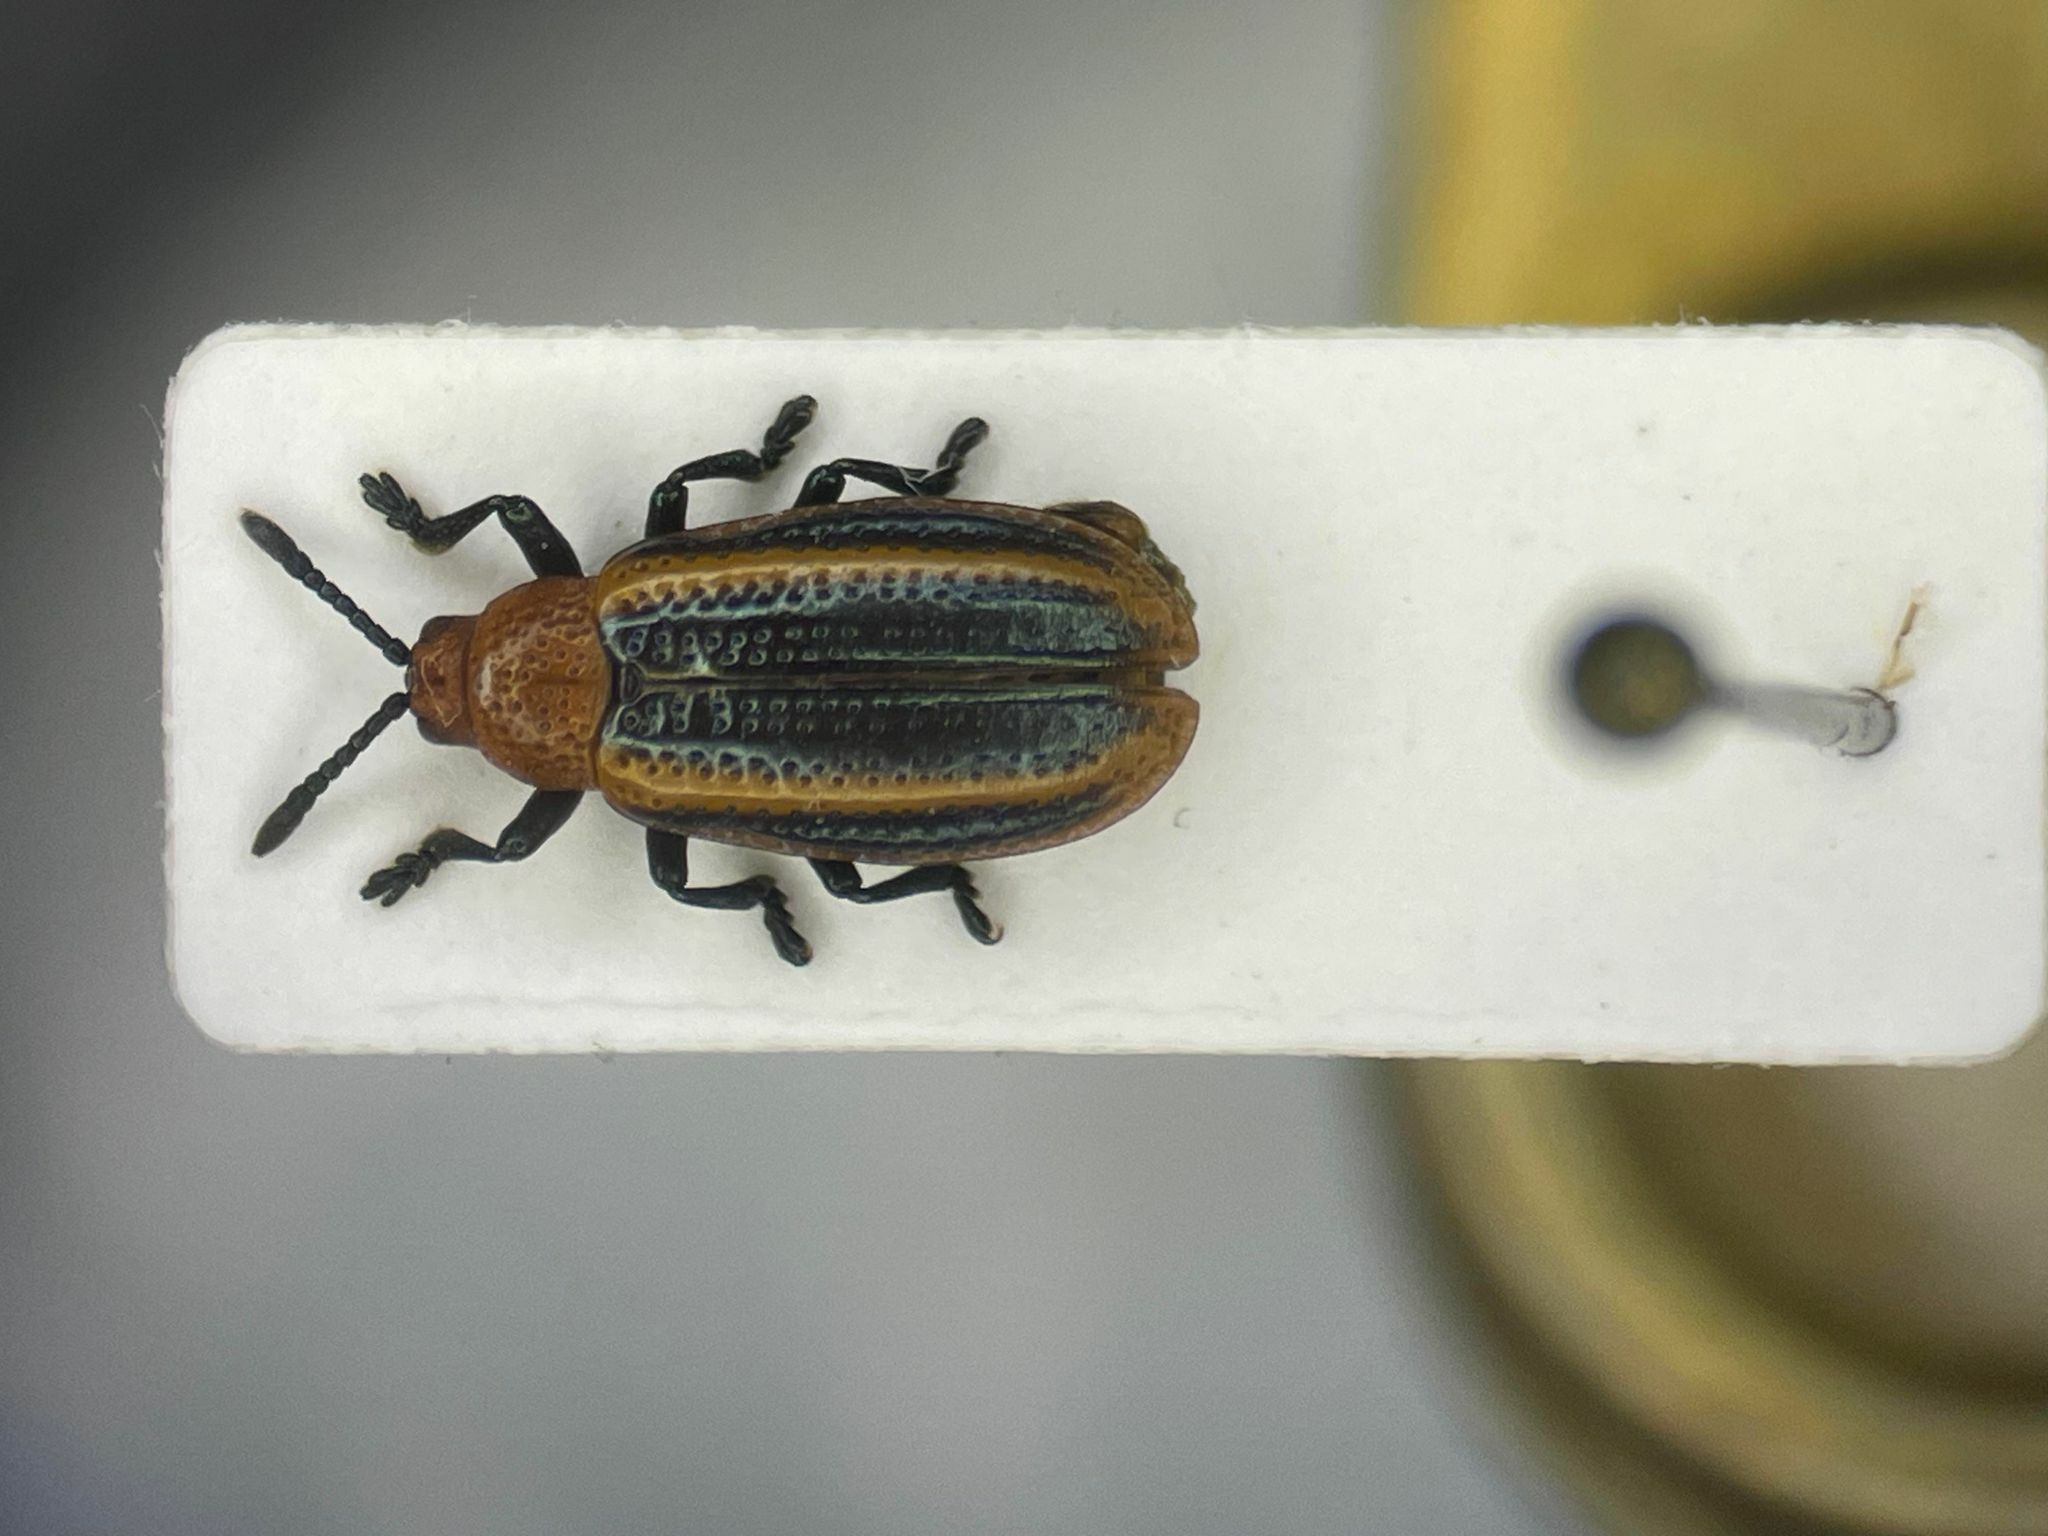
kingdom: Animalia
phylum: Arthropoda
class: Insecta
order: Coleoptera
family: Chrysomelidae
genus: Microrhopala
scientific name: Microrhopala vittata
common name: Goldenrod leaf miner beetle
